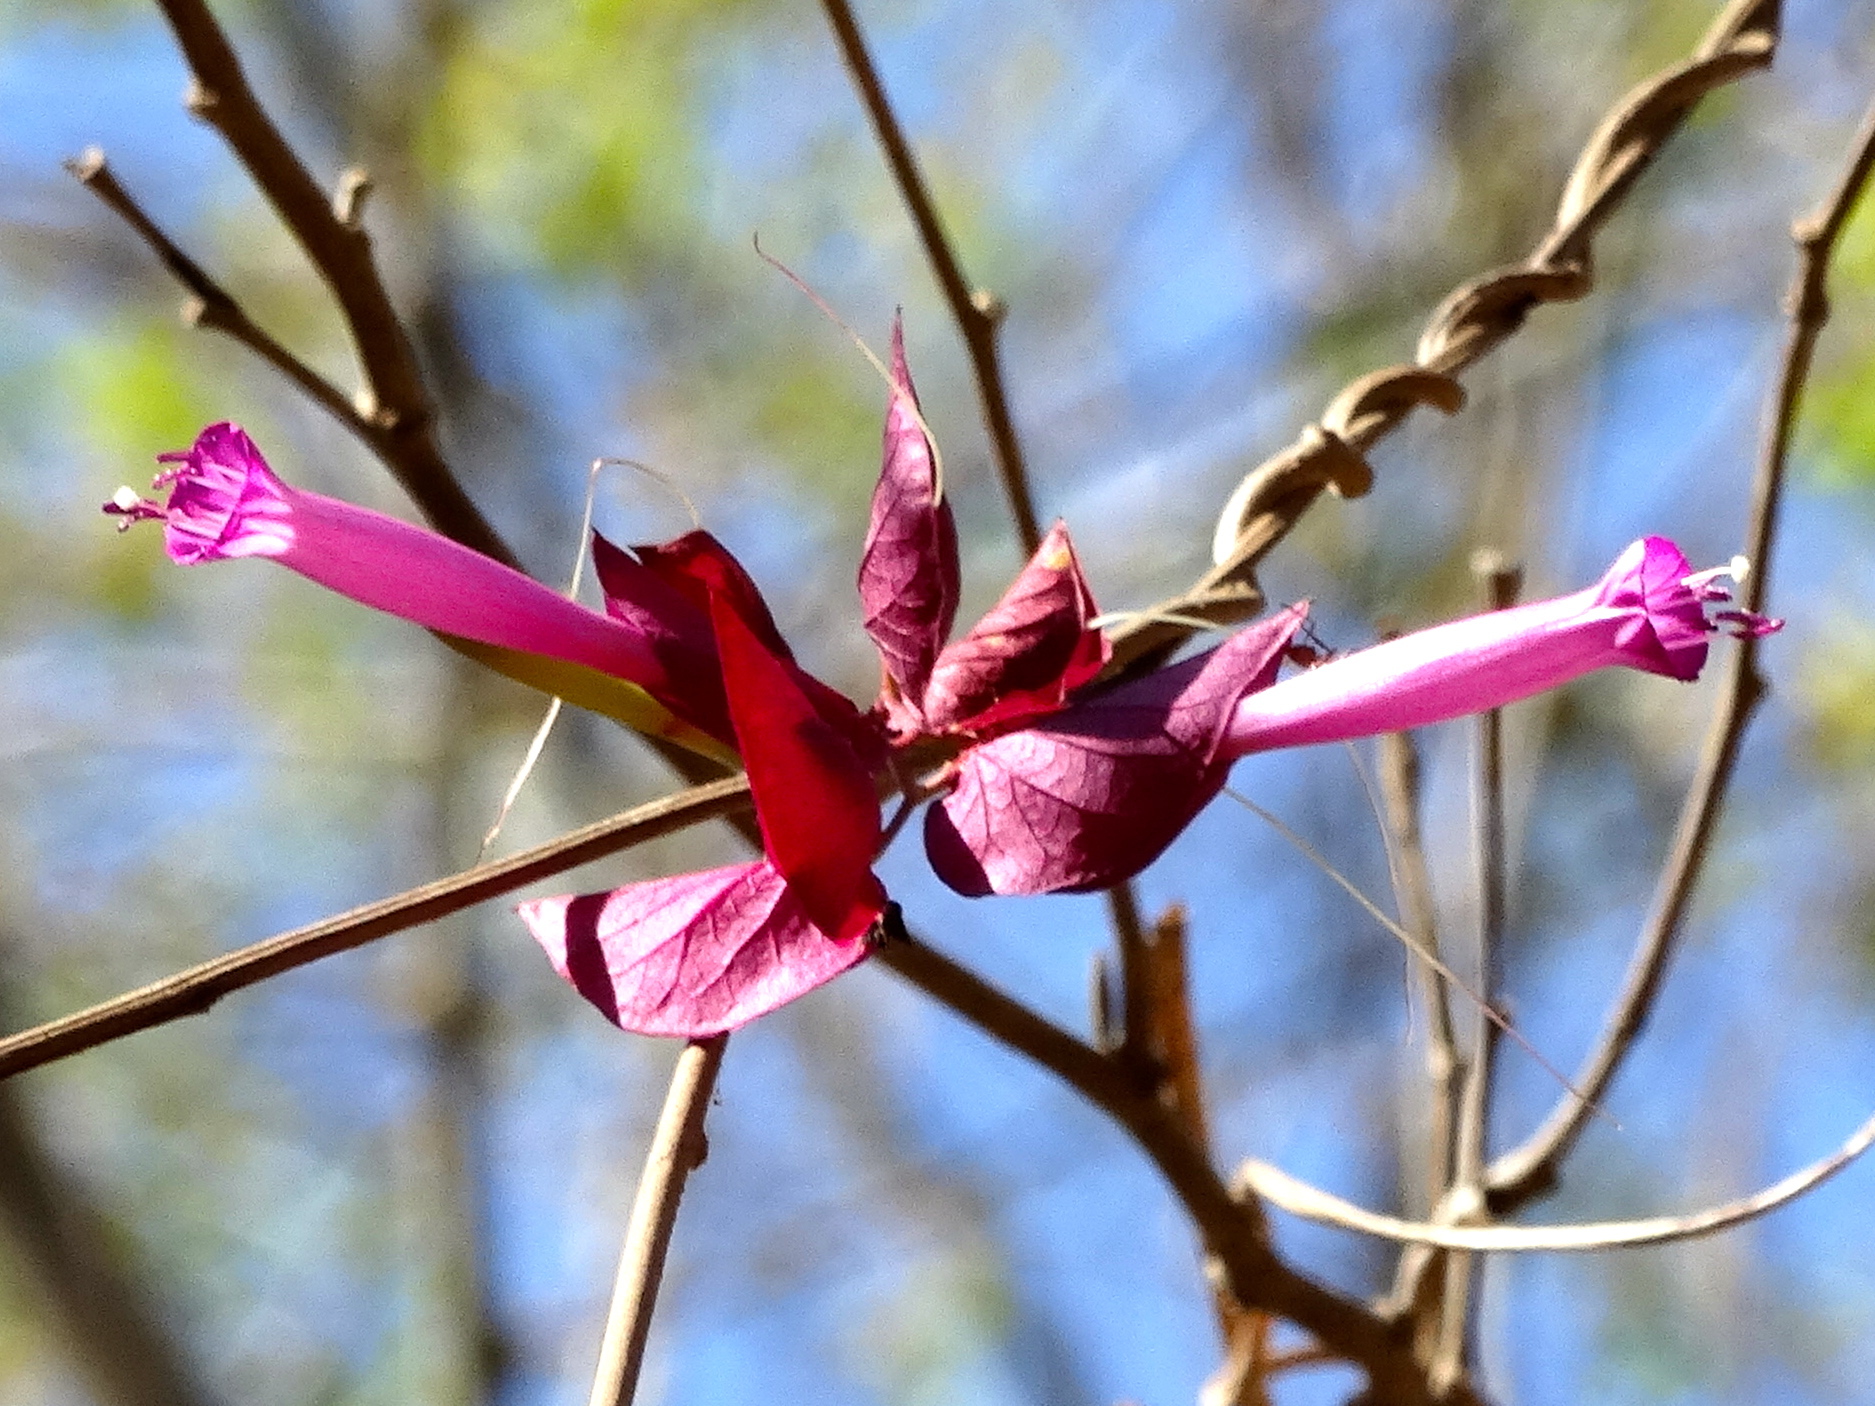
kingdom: Plantae
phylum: Tracheophyta
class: Magnoliopsida
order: Solanales
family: Convolvulaceae
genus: Ipomoea
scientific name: Ipomoea bracteata
